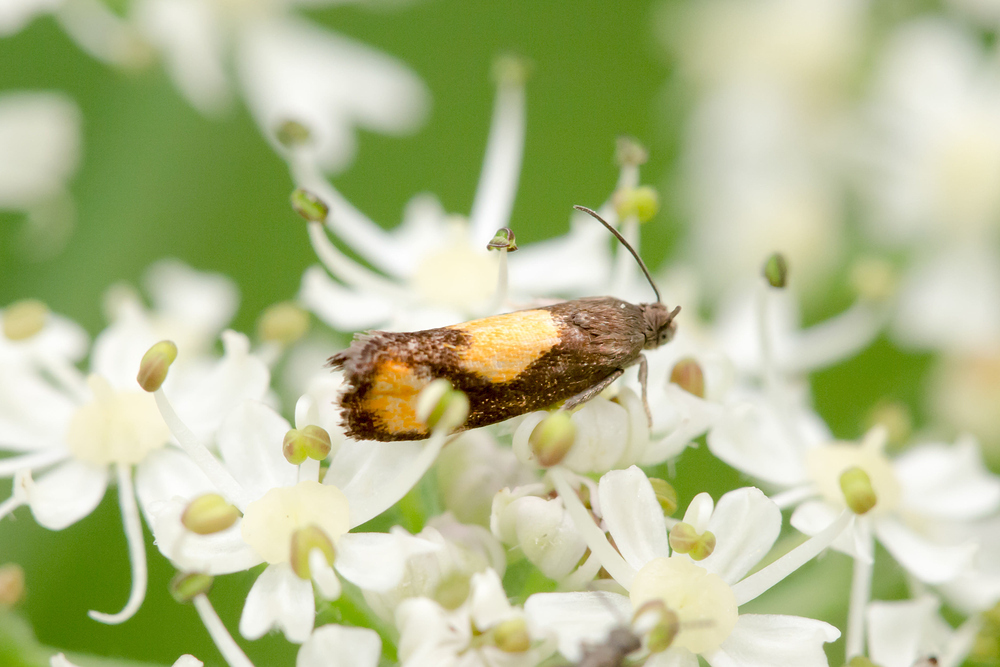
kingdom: Animalia
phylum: Arthropoda
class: Insecta
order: Lepidoptera
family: Tortricidae
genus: Pammene
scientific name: Pammene aurana
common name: Orange-spot piercer
